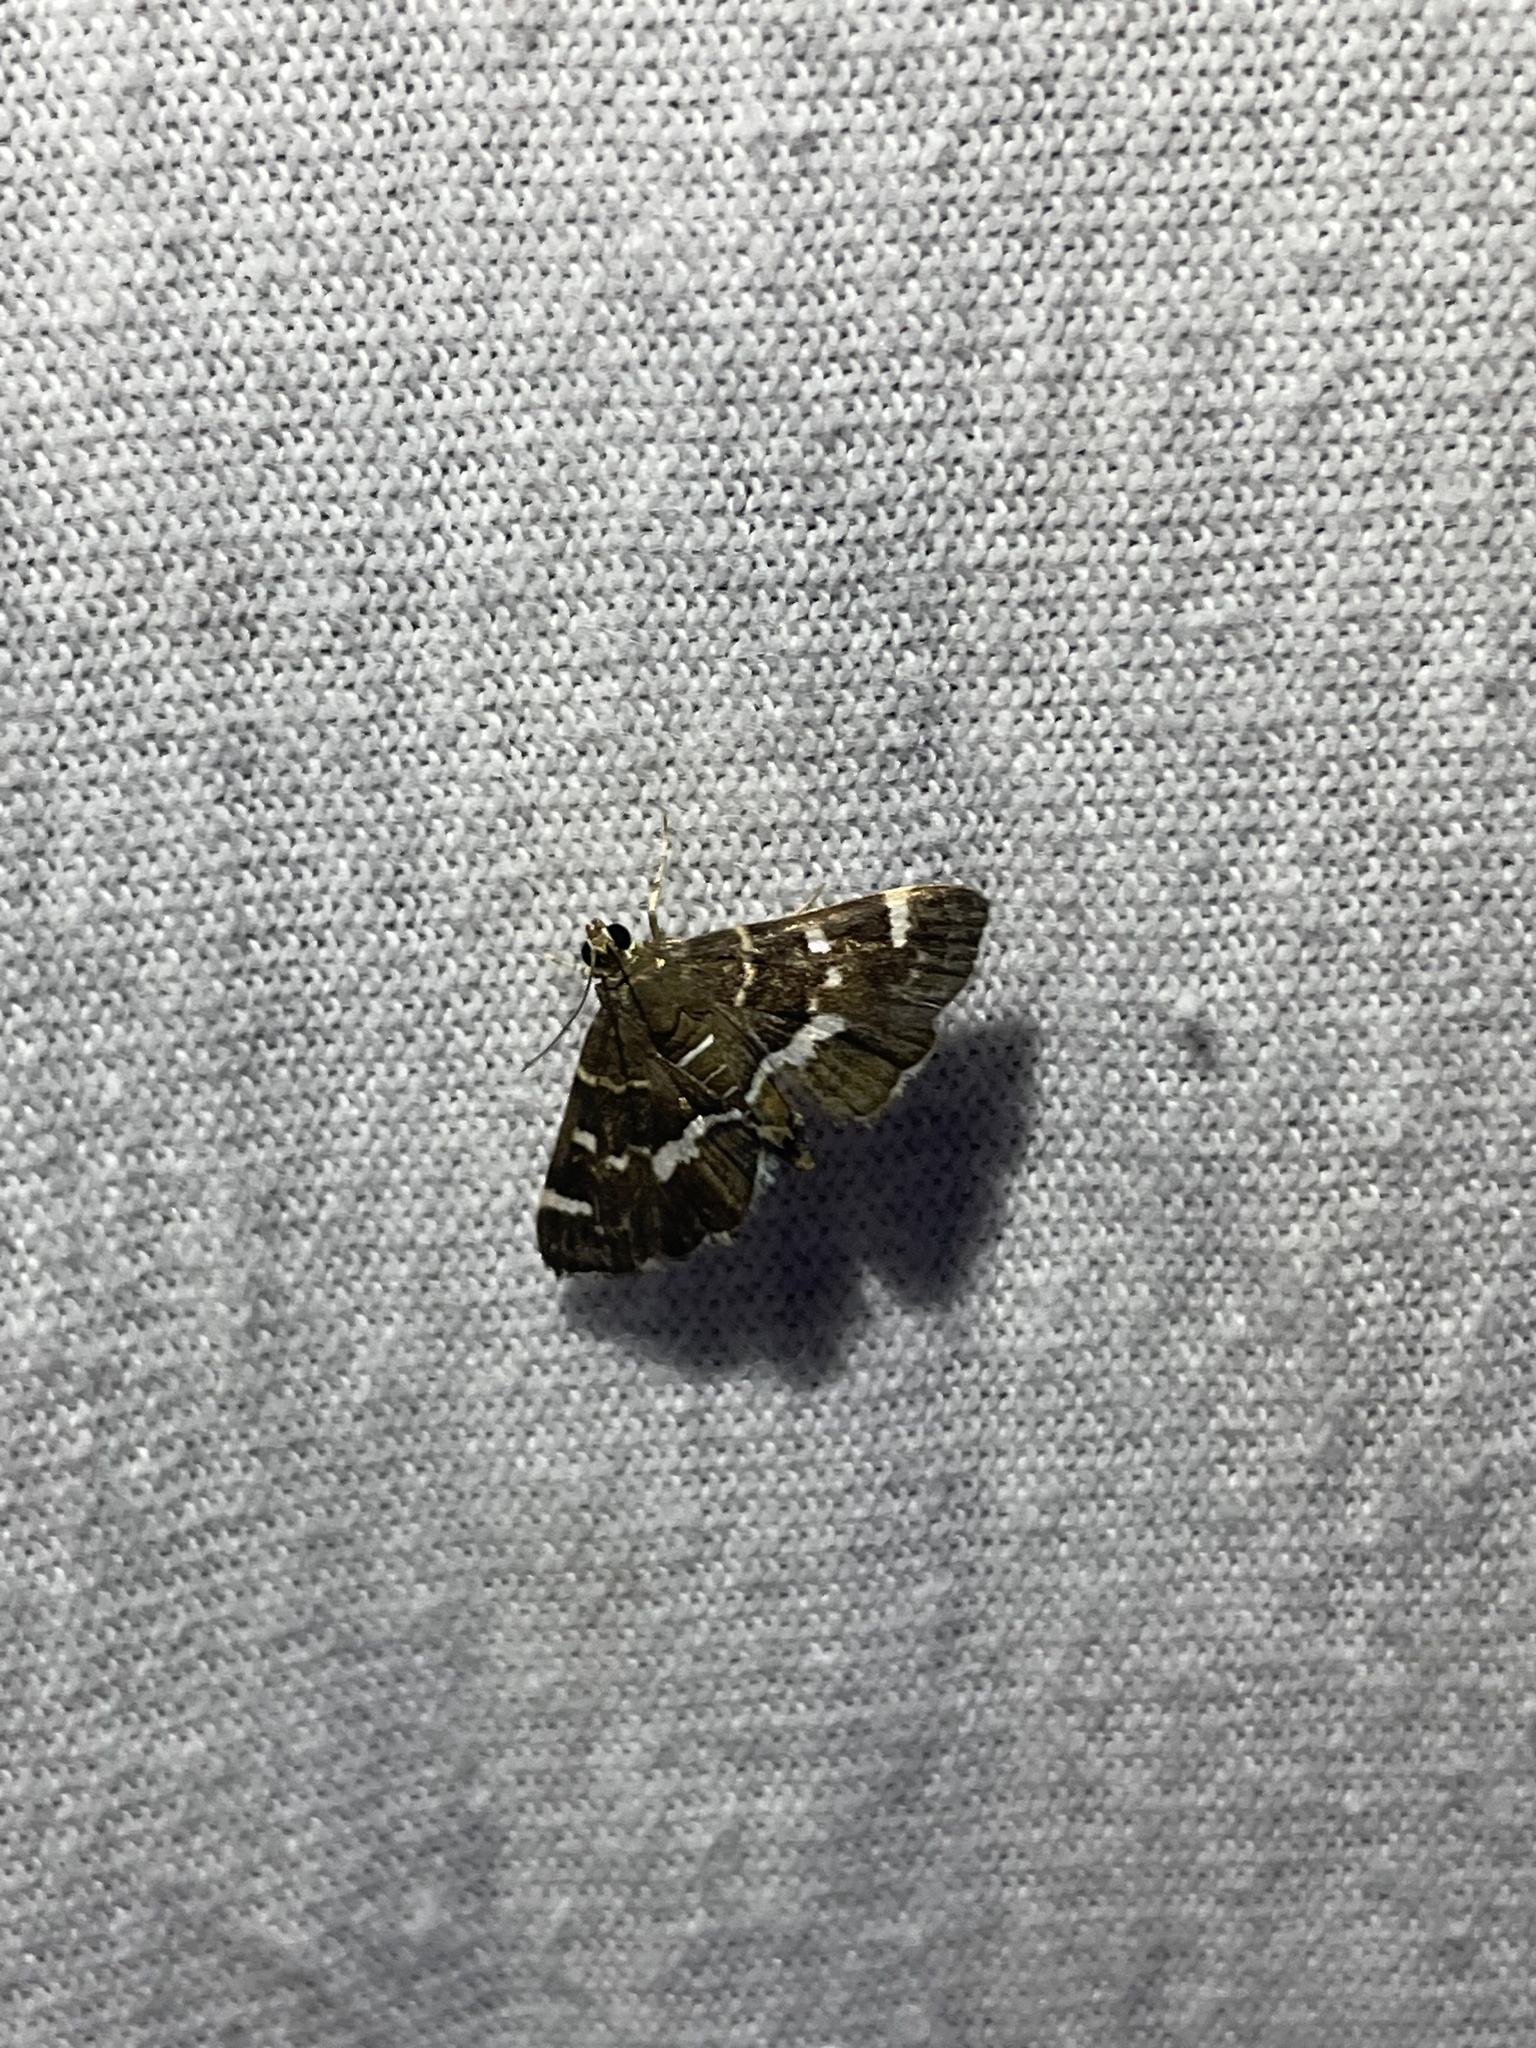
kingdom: Animalia
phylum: Arthropoda
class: Insecta
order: Lepidoptera
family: Crambidae
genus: Hymenia
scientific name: Hymenia perspectalis
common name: Spotted beet webworm
